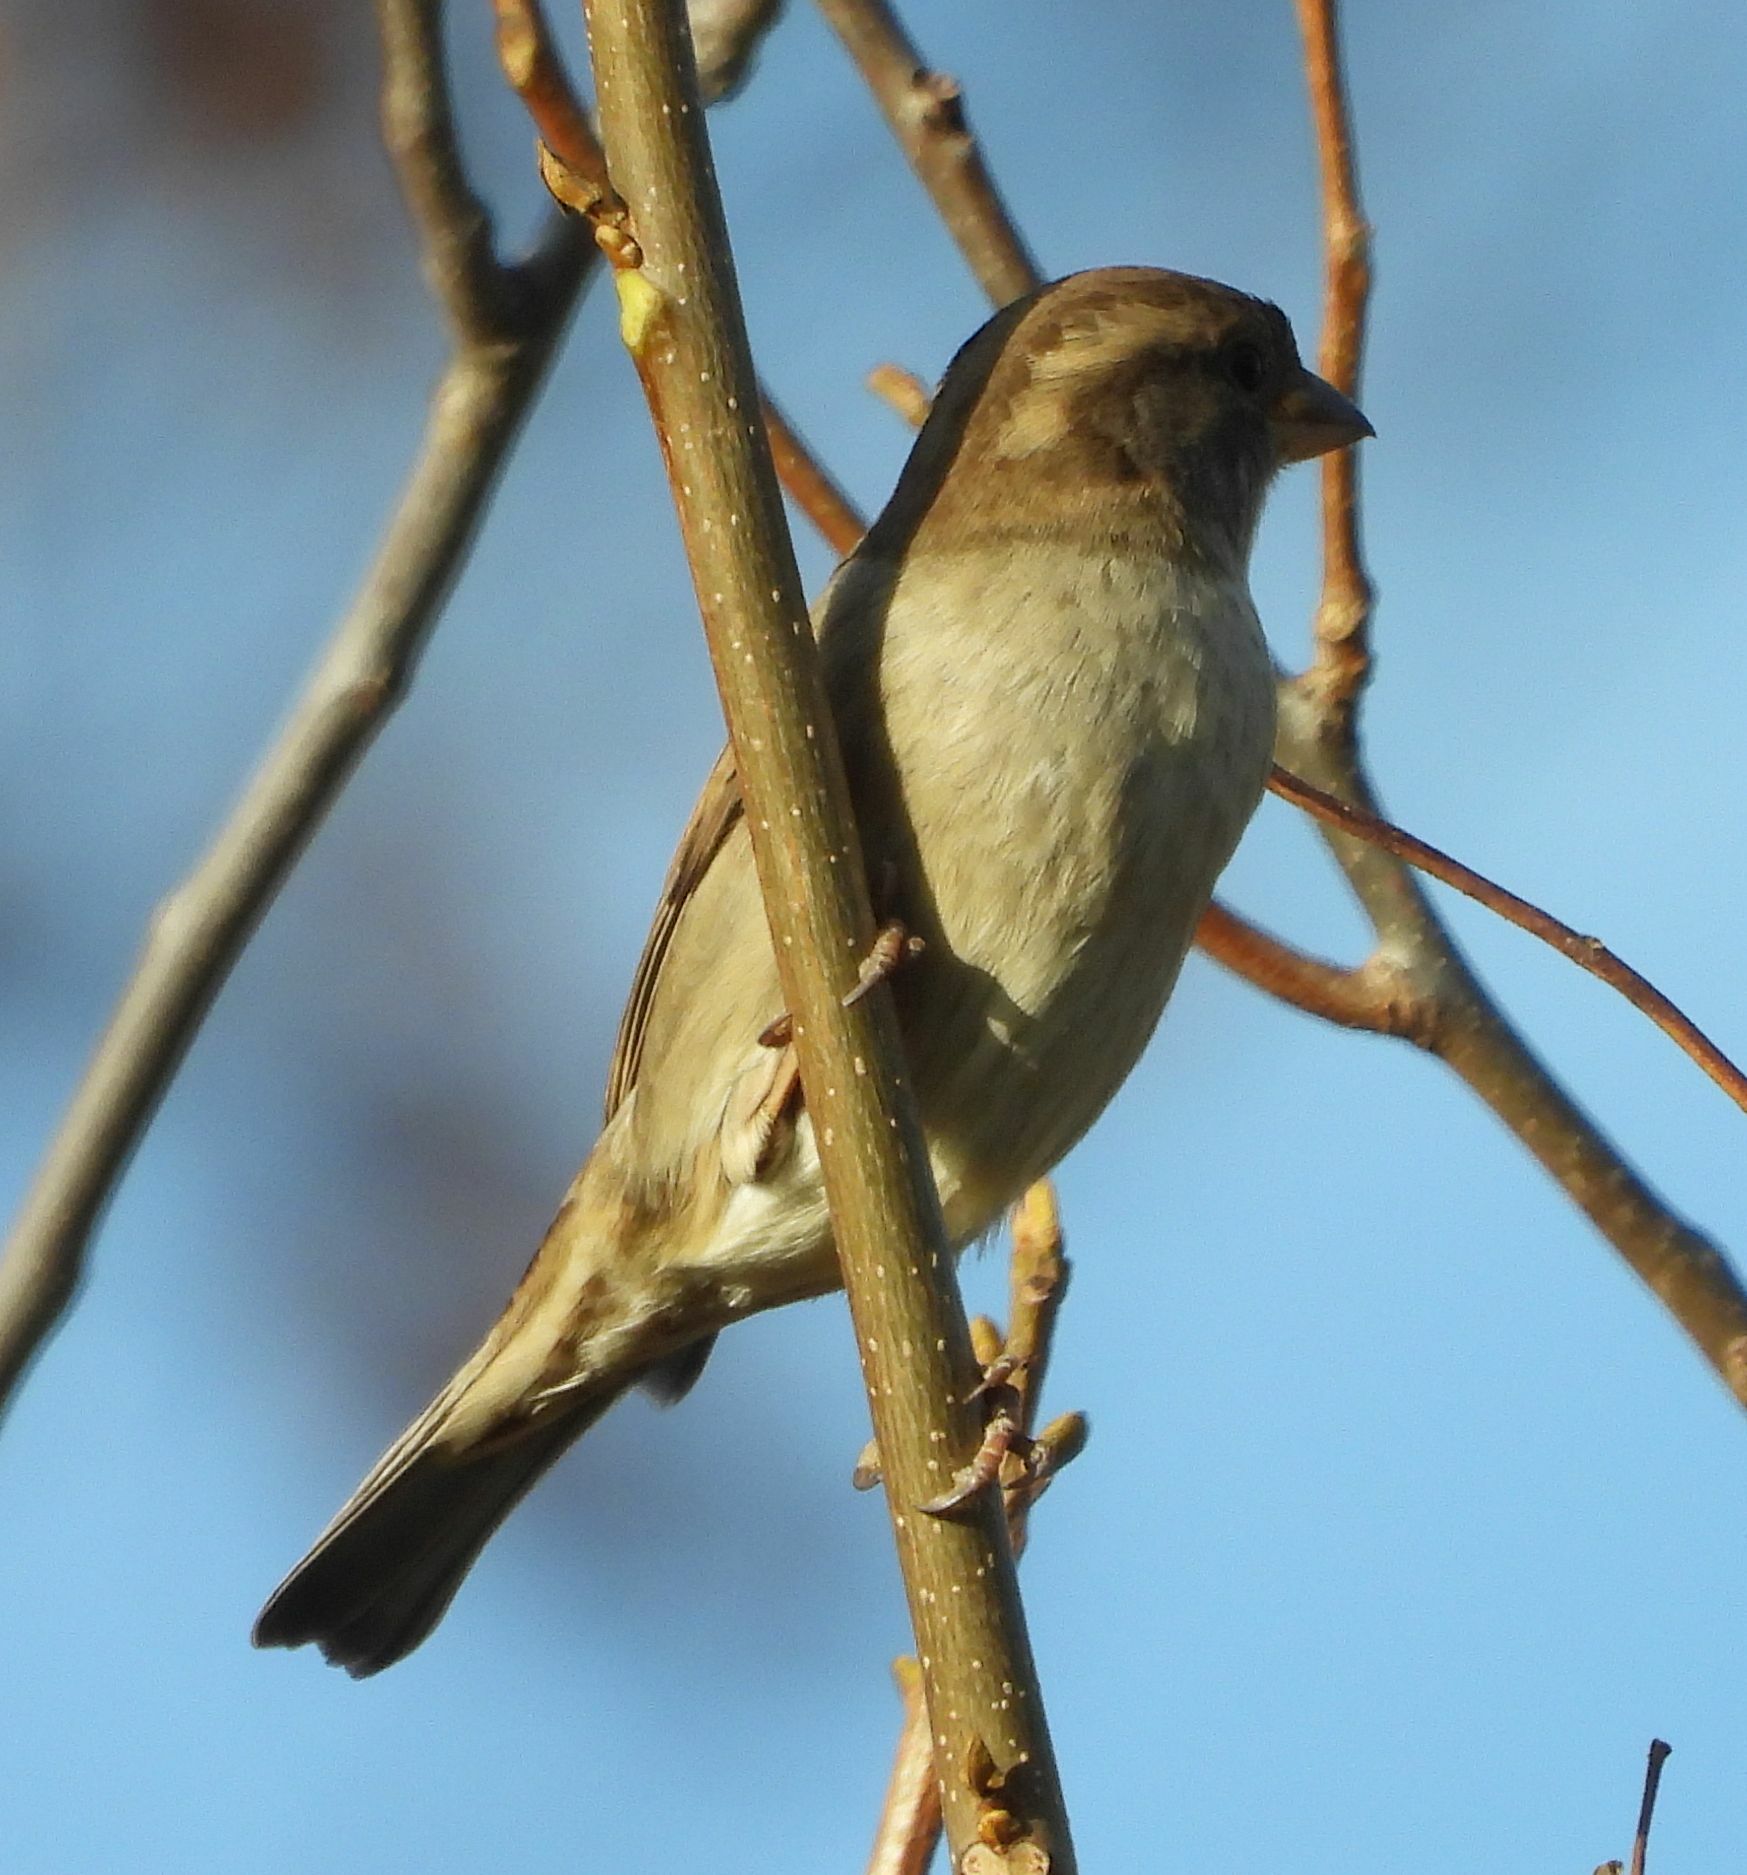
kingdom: Animalia
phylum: Chordata
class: Aves
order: Passeriformes
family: Passeridae
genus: Passer
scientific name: Passer domesticus
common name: House sparrow
